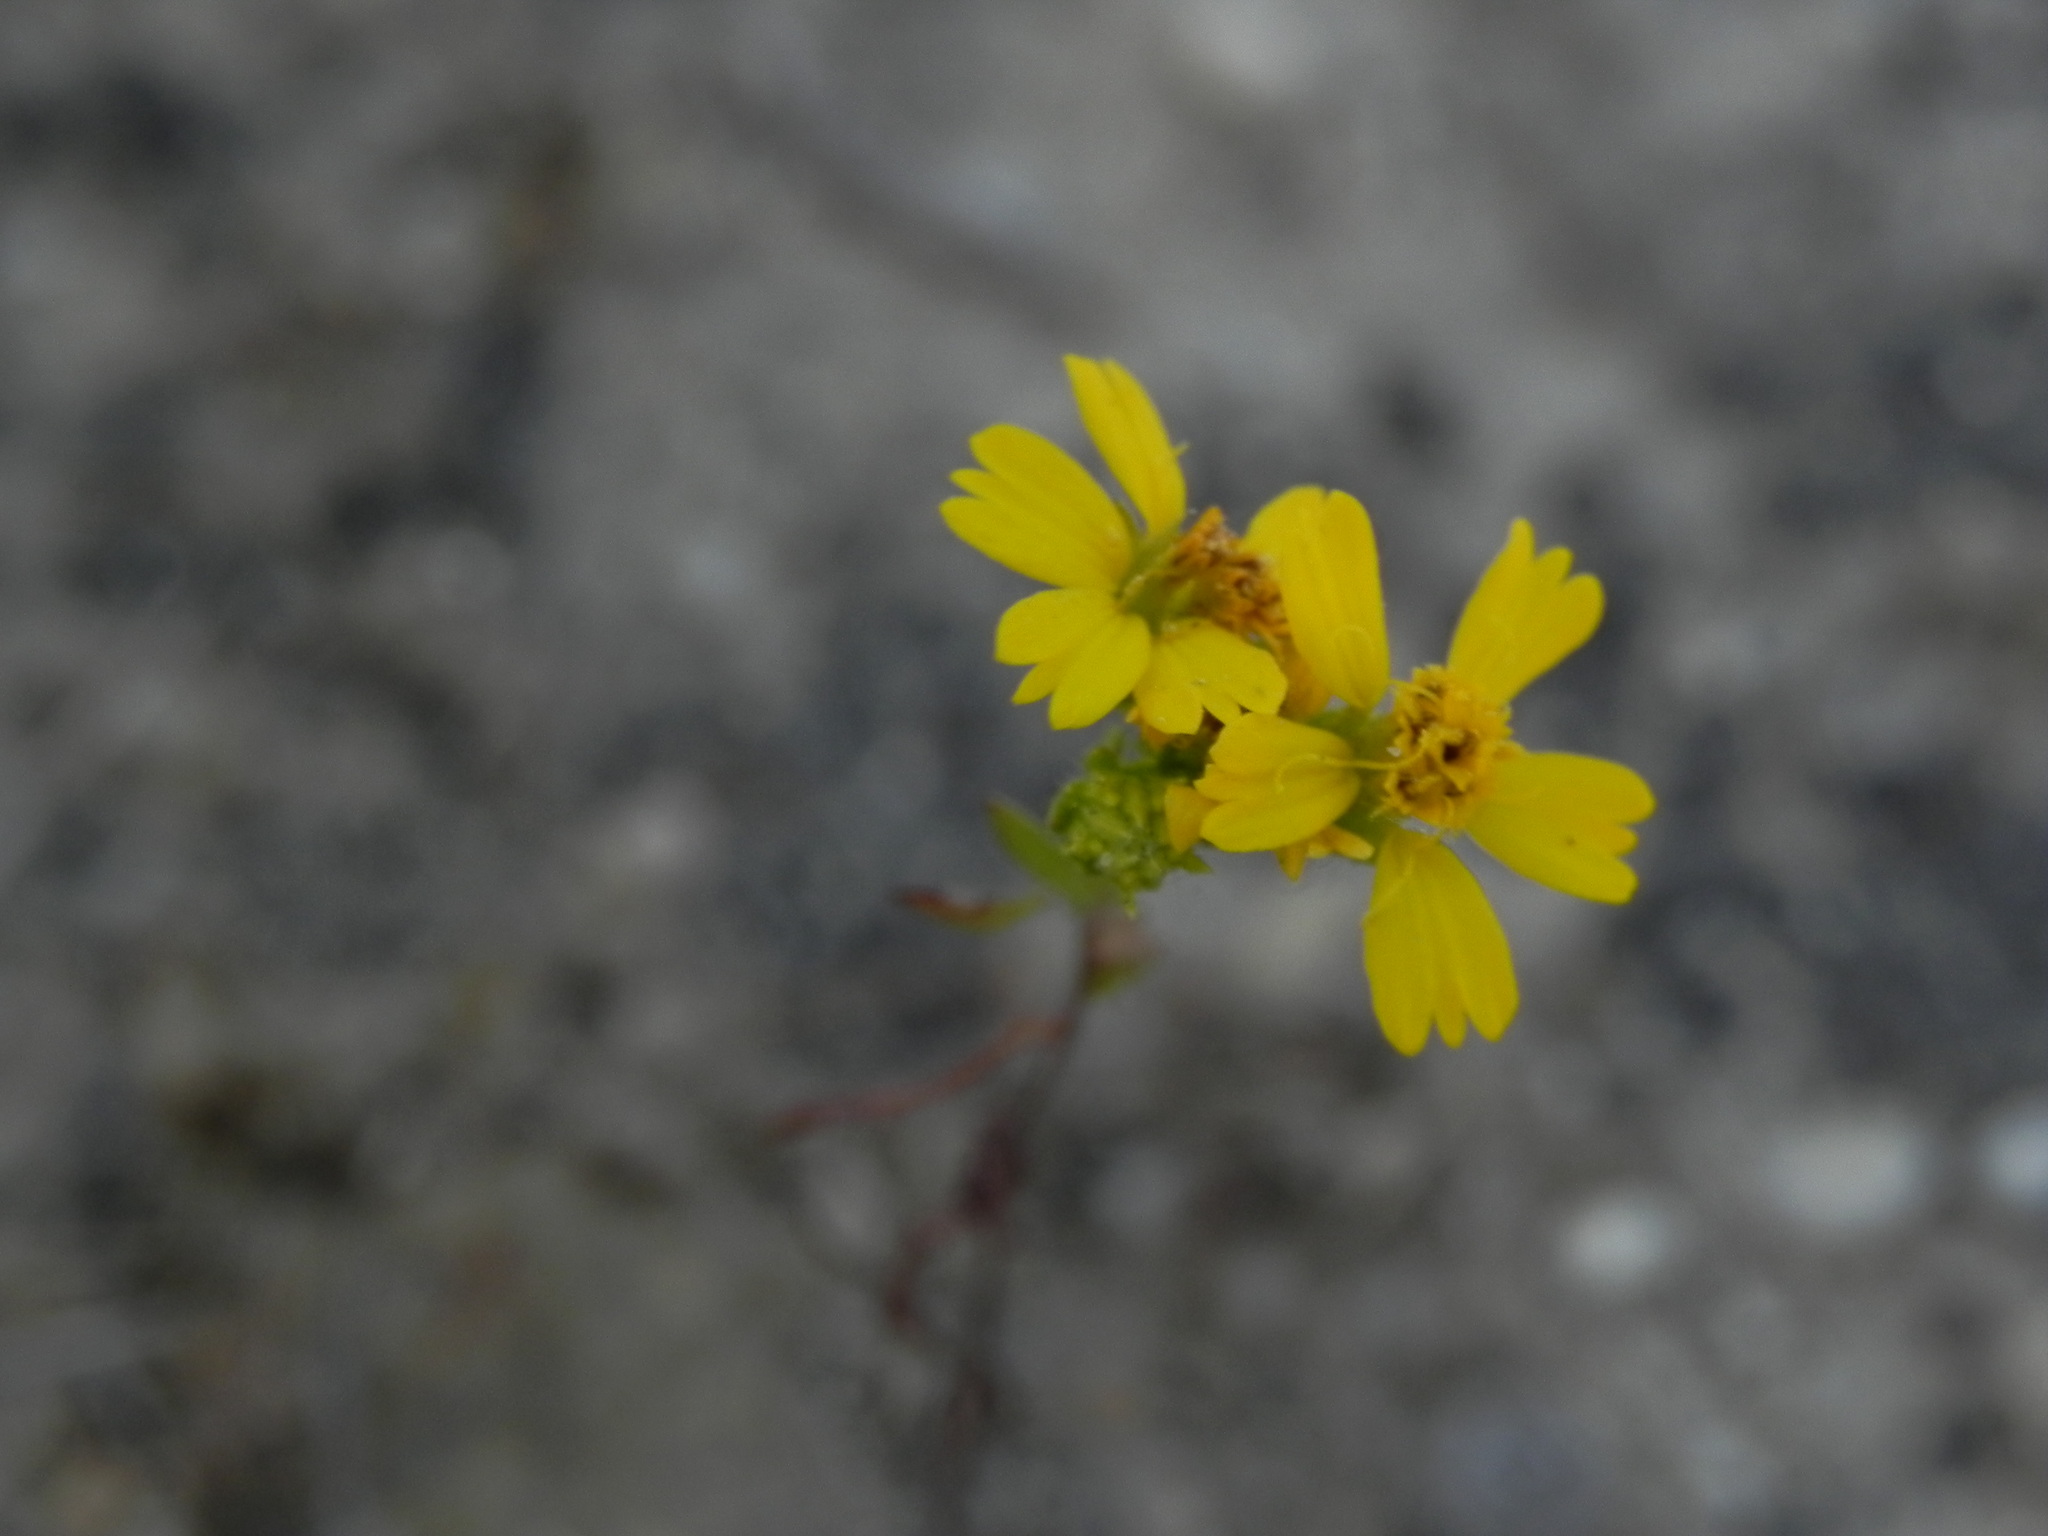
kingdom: Plantae
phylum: Tracheophyta
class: Magnoliopsida
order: Asterales
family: Asteraceae
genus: Deinandra
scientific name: Deinandra fasciculata
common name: Clustered tarweed
